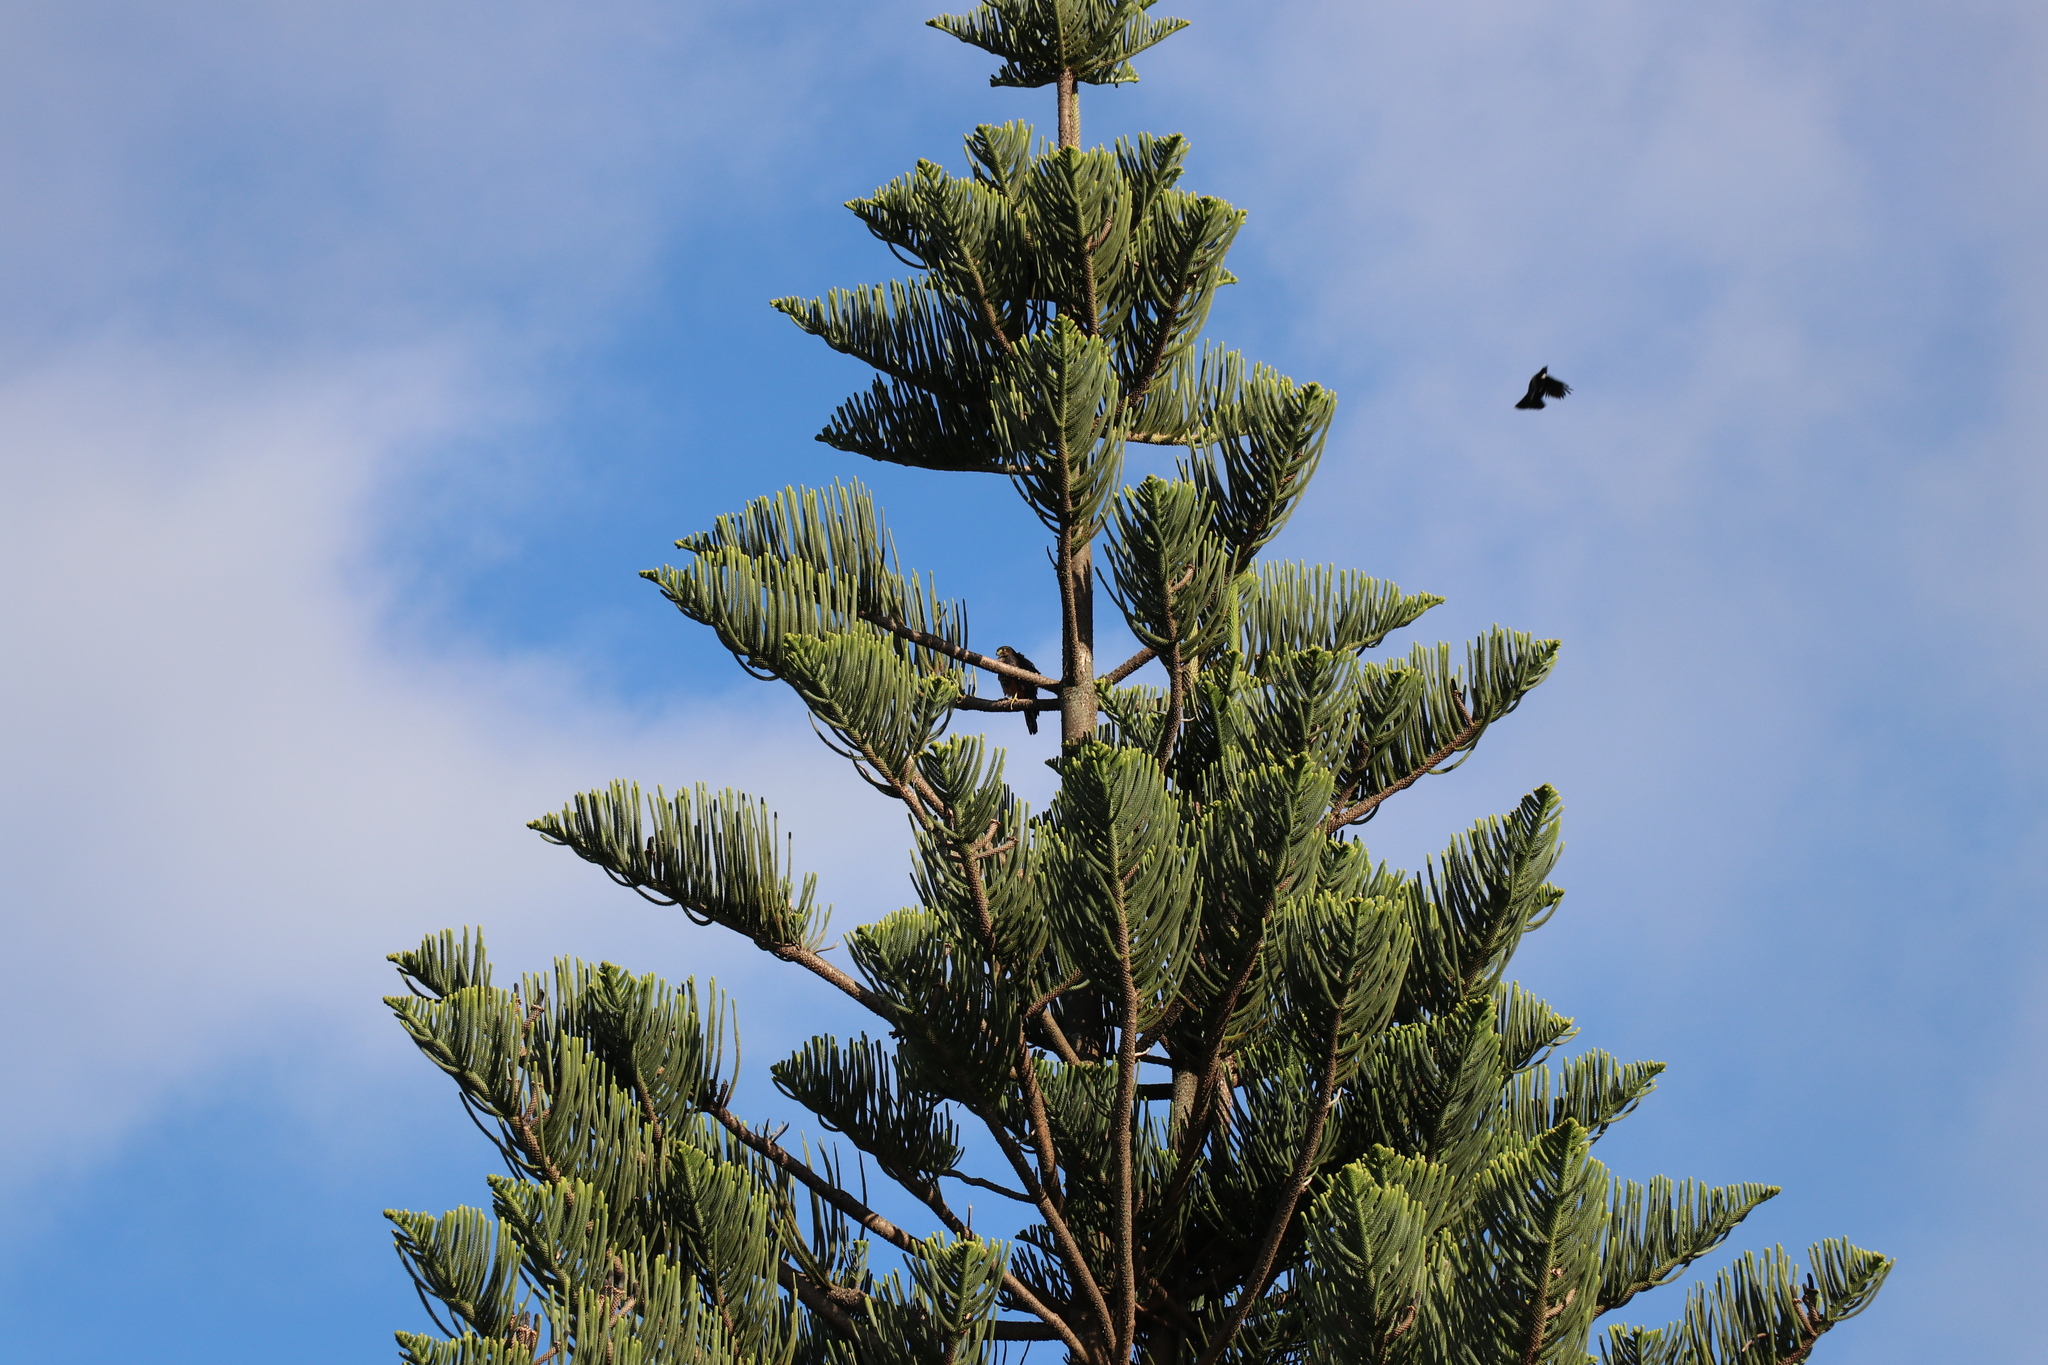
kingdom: Animalia
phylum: Chordata
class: Aves
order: Falconiformes
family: Falconidae
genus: Falco
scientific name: Falco novaeseelandiae
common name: New zealand falcon
